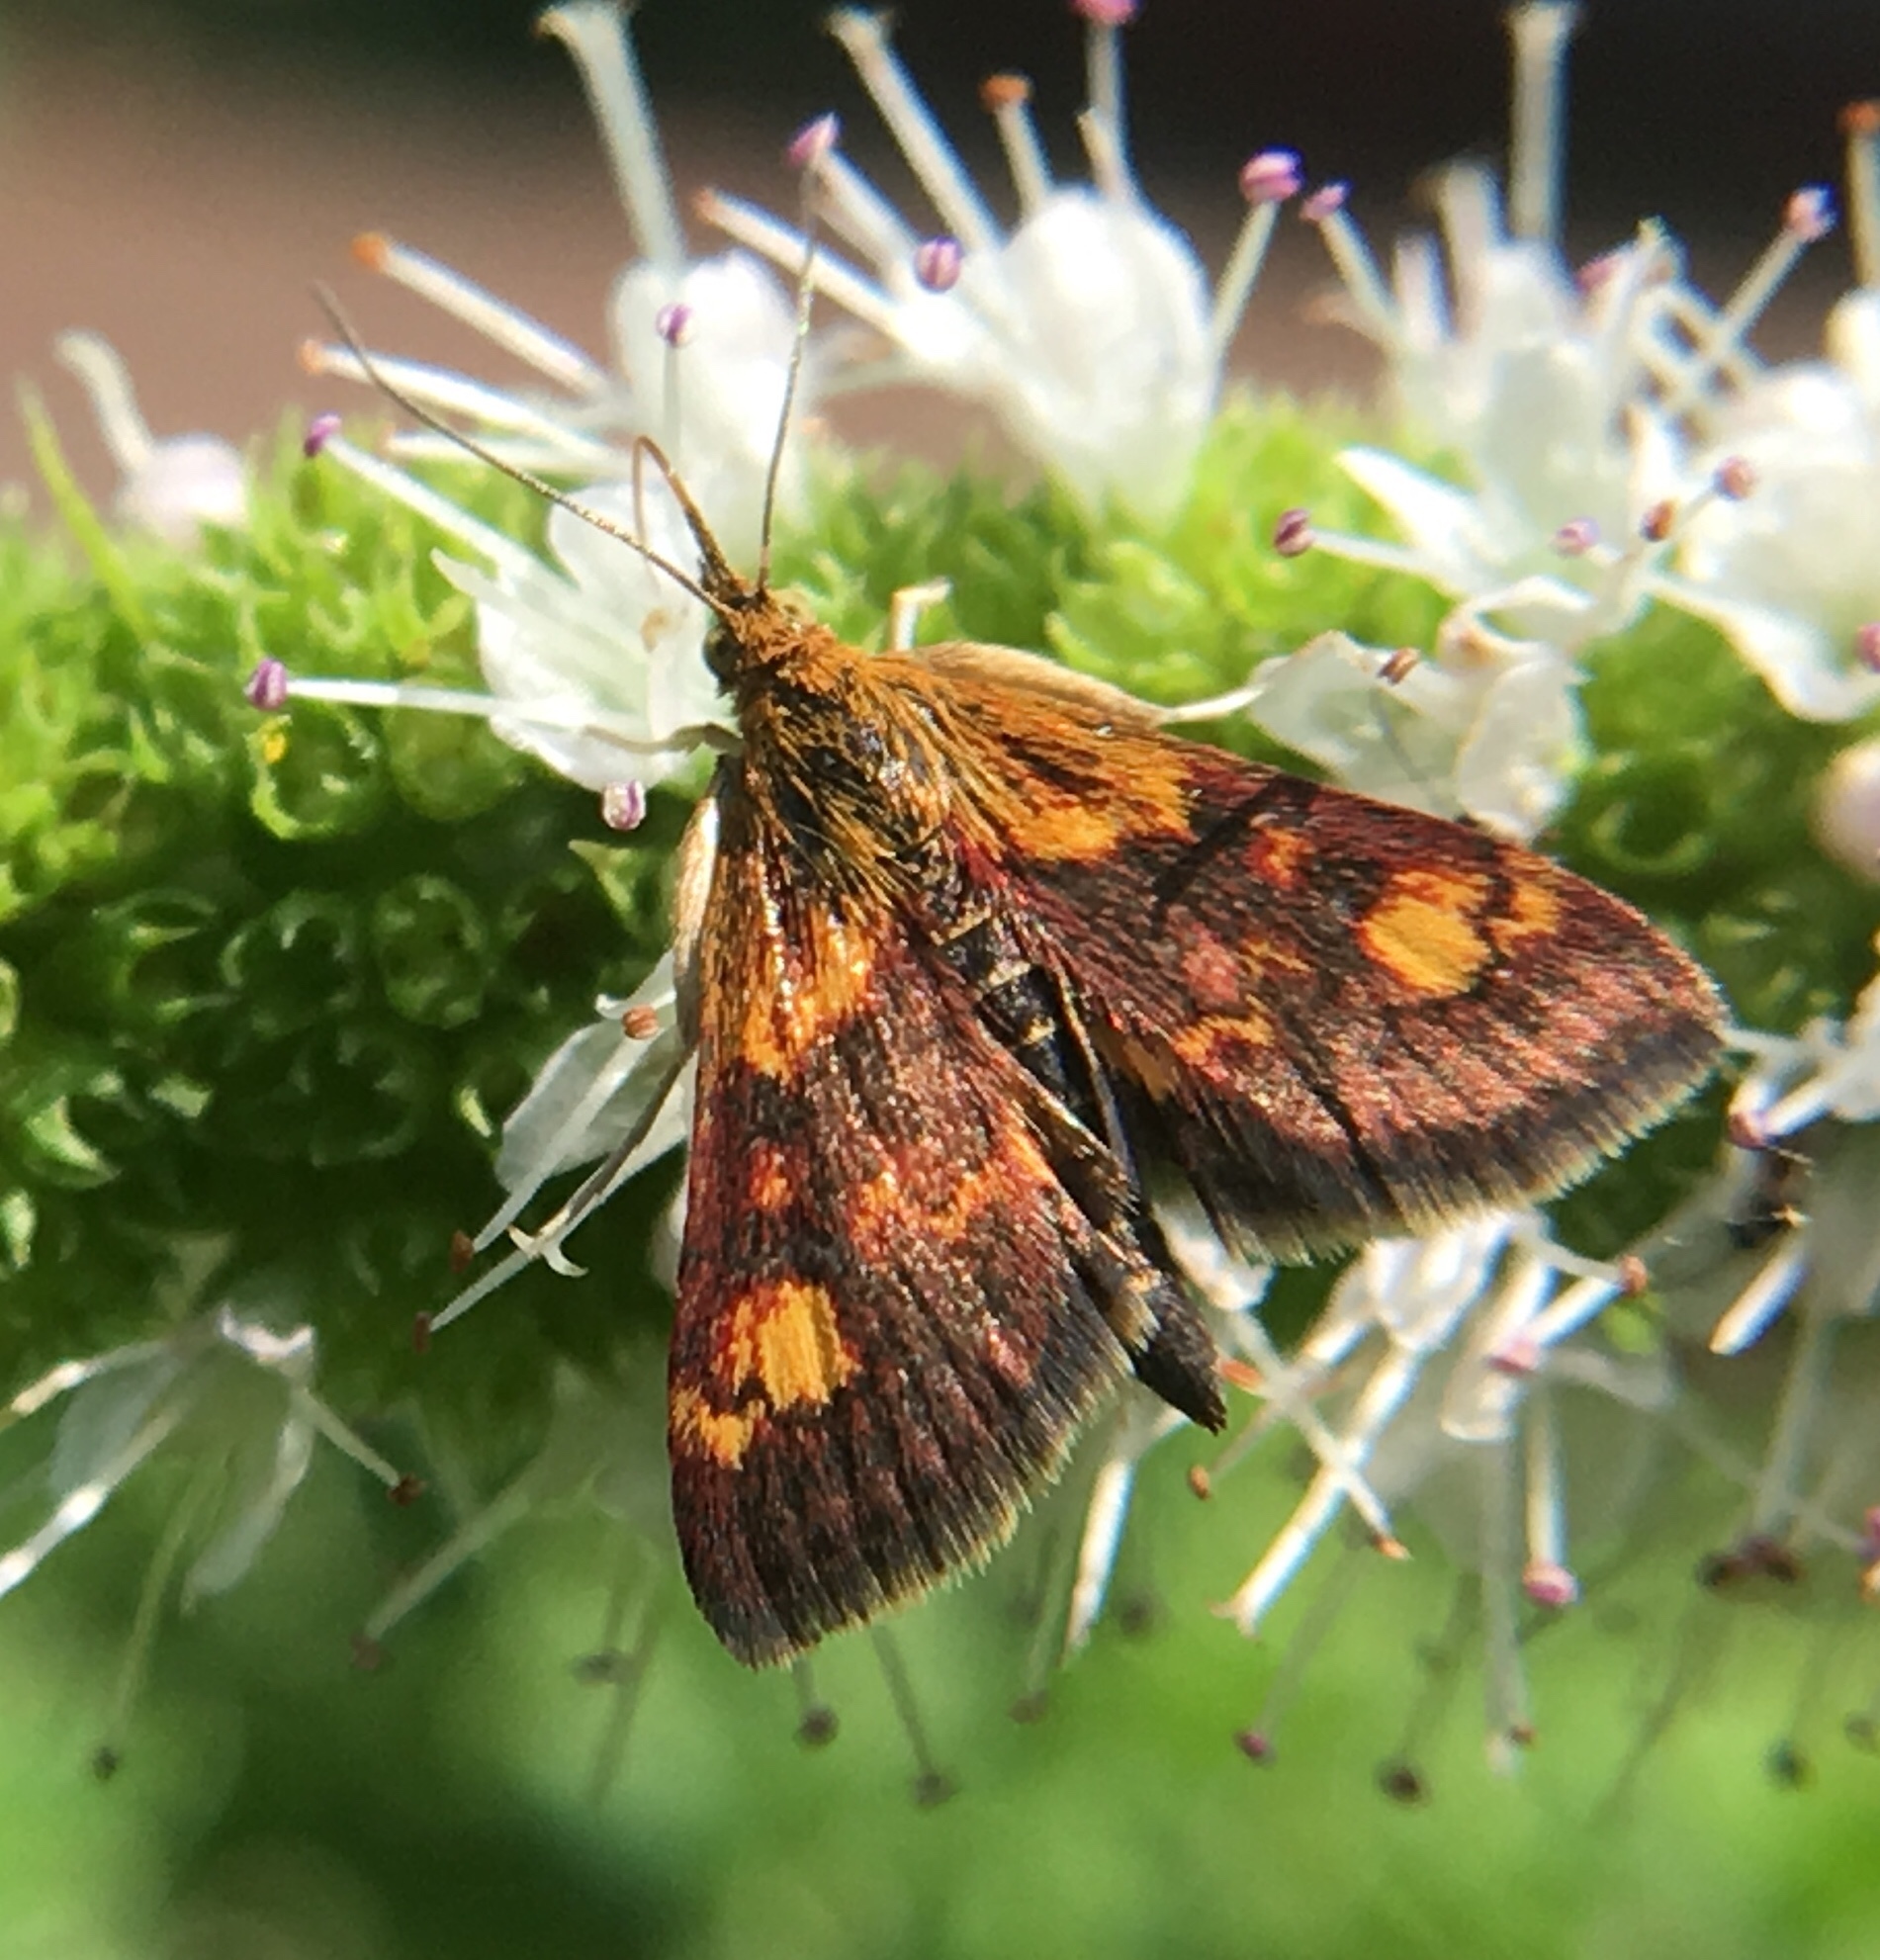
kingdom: Animalia
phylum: Arthropoda
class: Insecta
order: Lepidoptera
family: Crambidae
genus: Pyrausta
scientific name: Pyrausta orphisalis
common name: Orange mint moth
